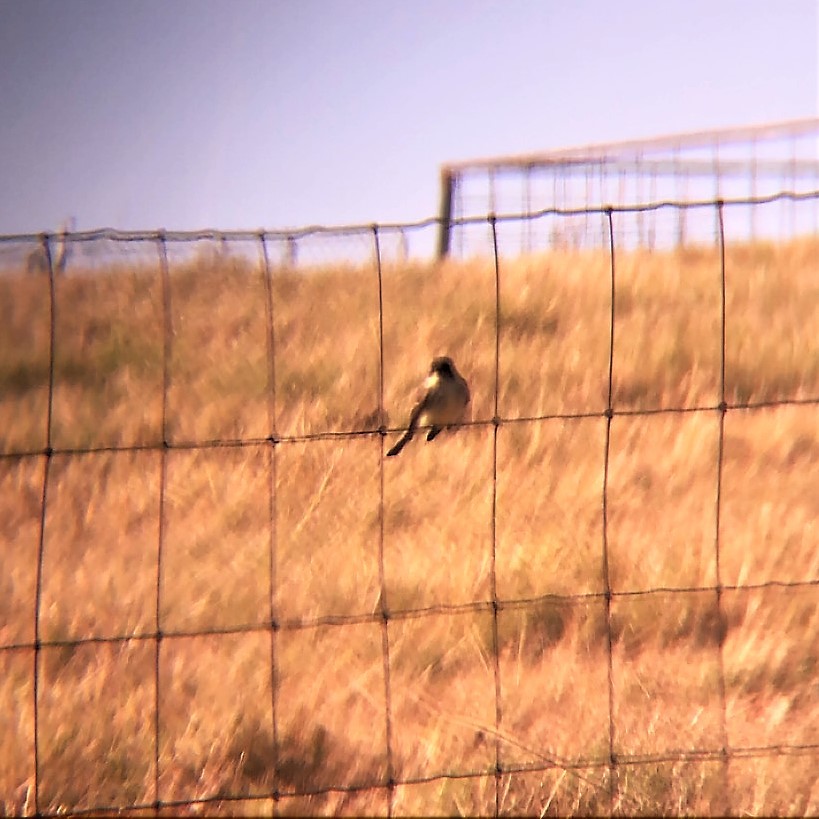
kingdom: Animalia
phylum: Chordata
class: Aves
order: Passeriformes
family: Tyrannidae
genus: Sayornis
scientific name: Sayornis phoebe
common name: Eastern phoebe
